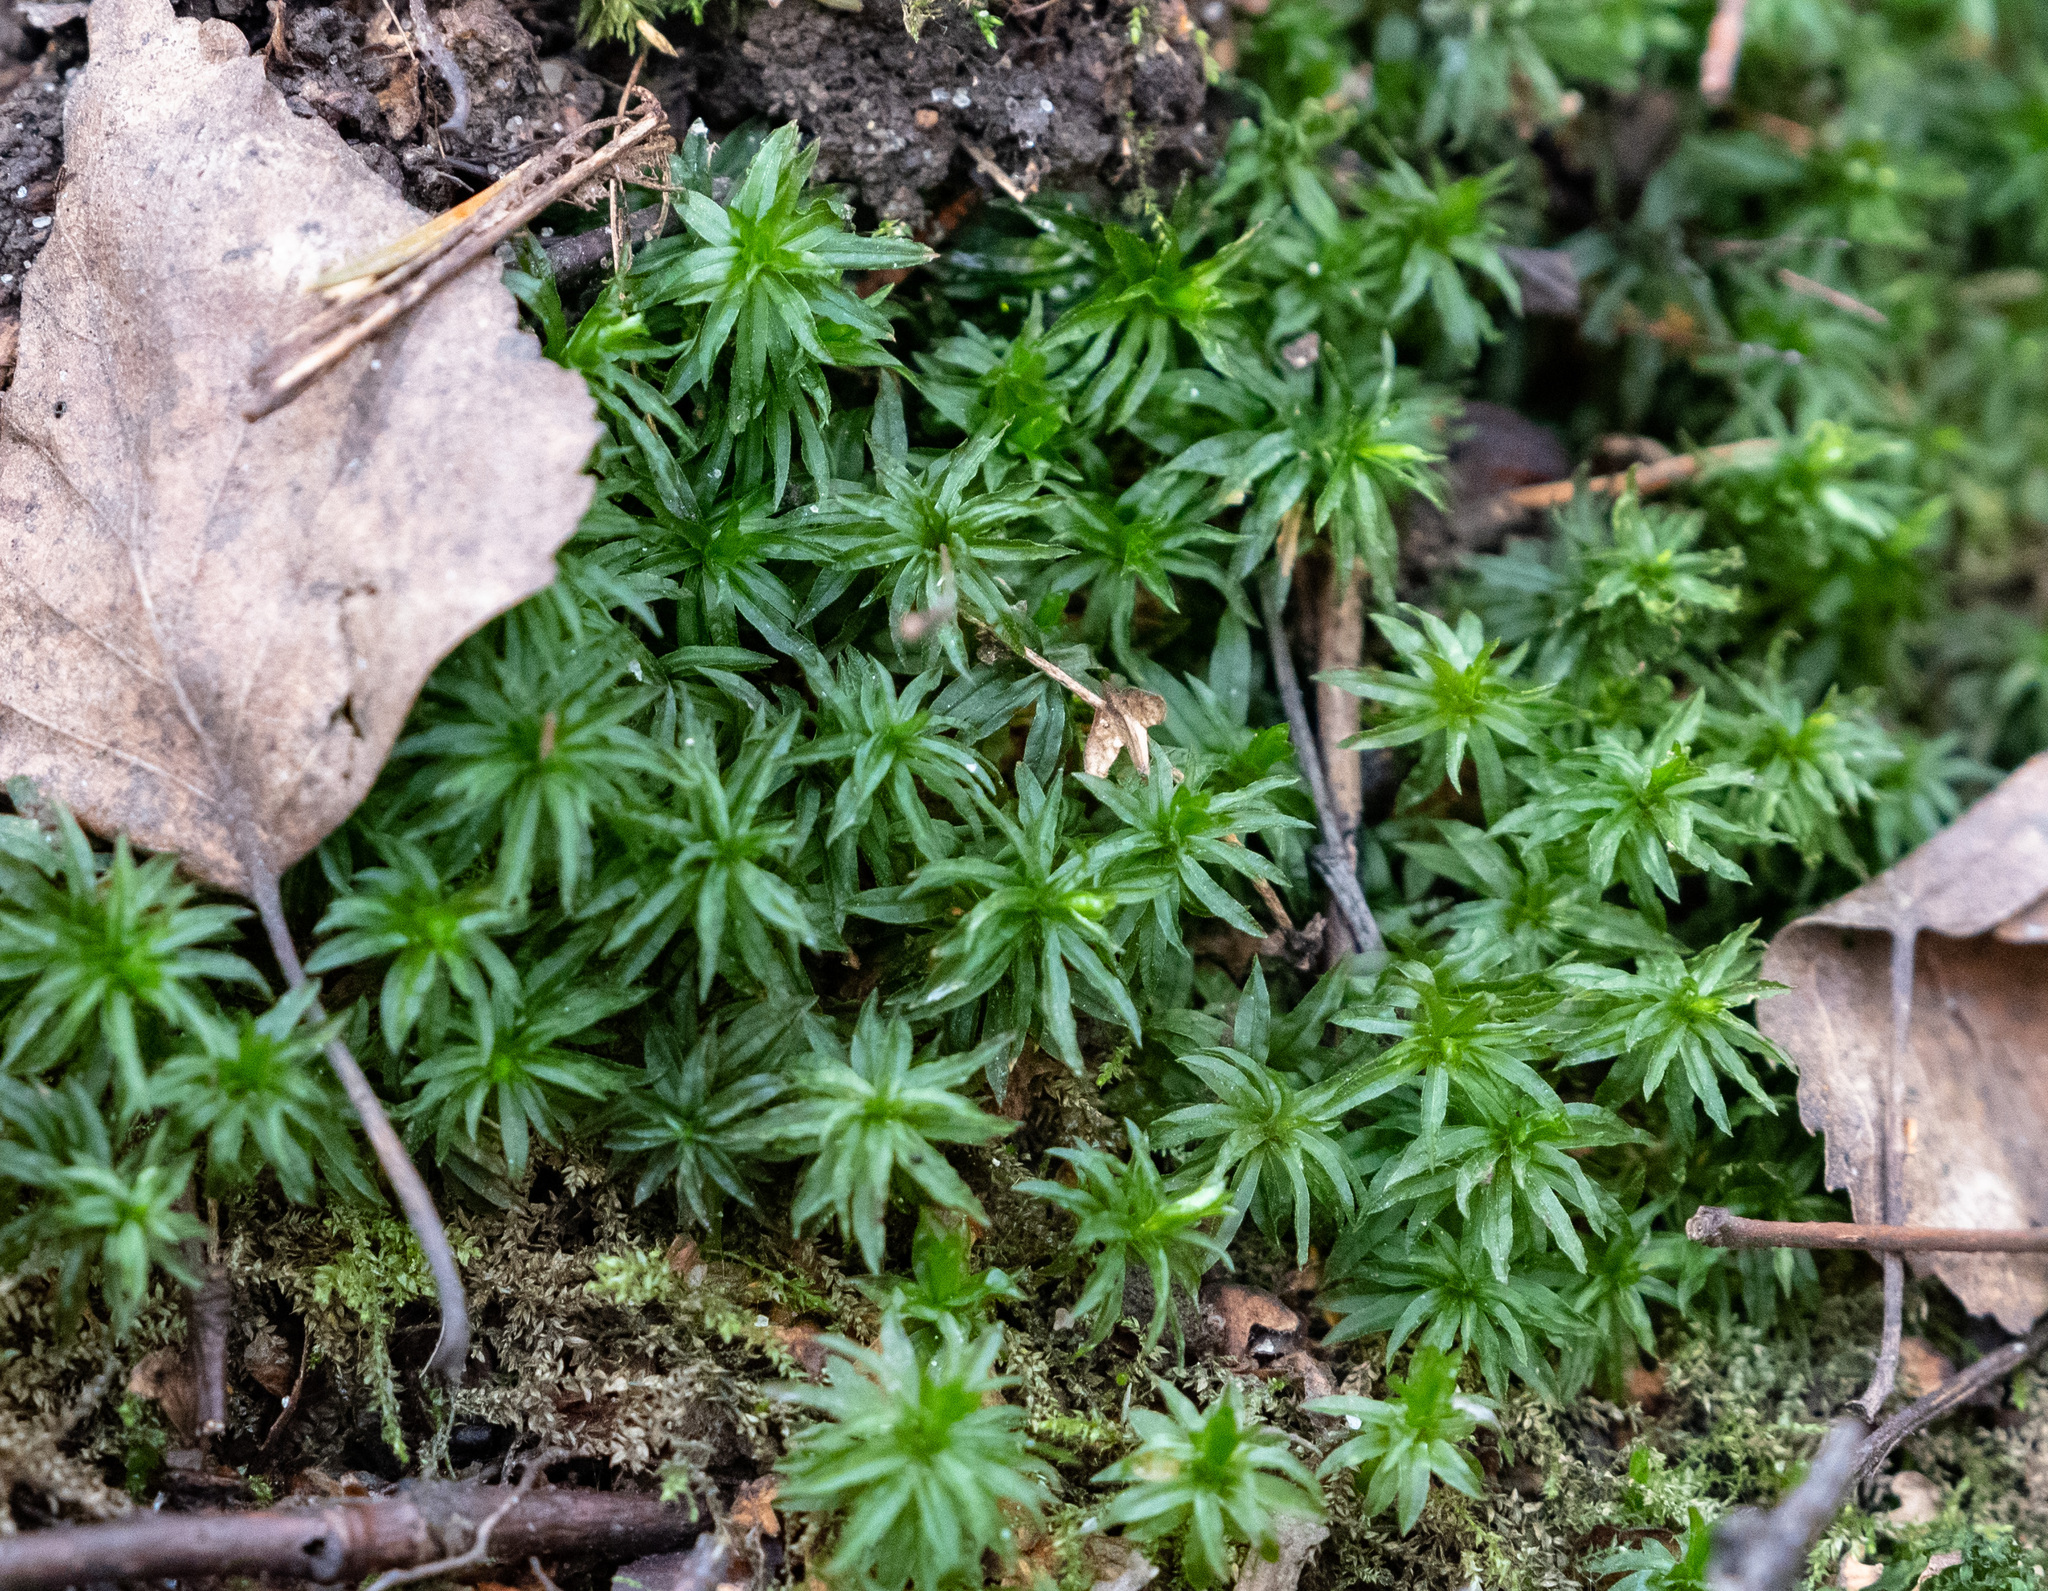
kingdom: Plantae
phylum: Bryophyta
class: Polytrichopsida
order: Polytrichales
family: Polytrichaceae
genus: Atrichum
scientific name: Atrichum undulatum
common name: Common smoothcap
